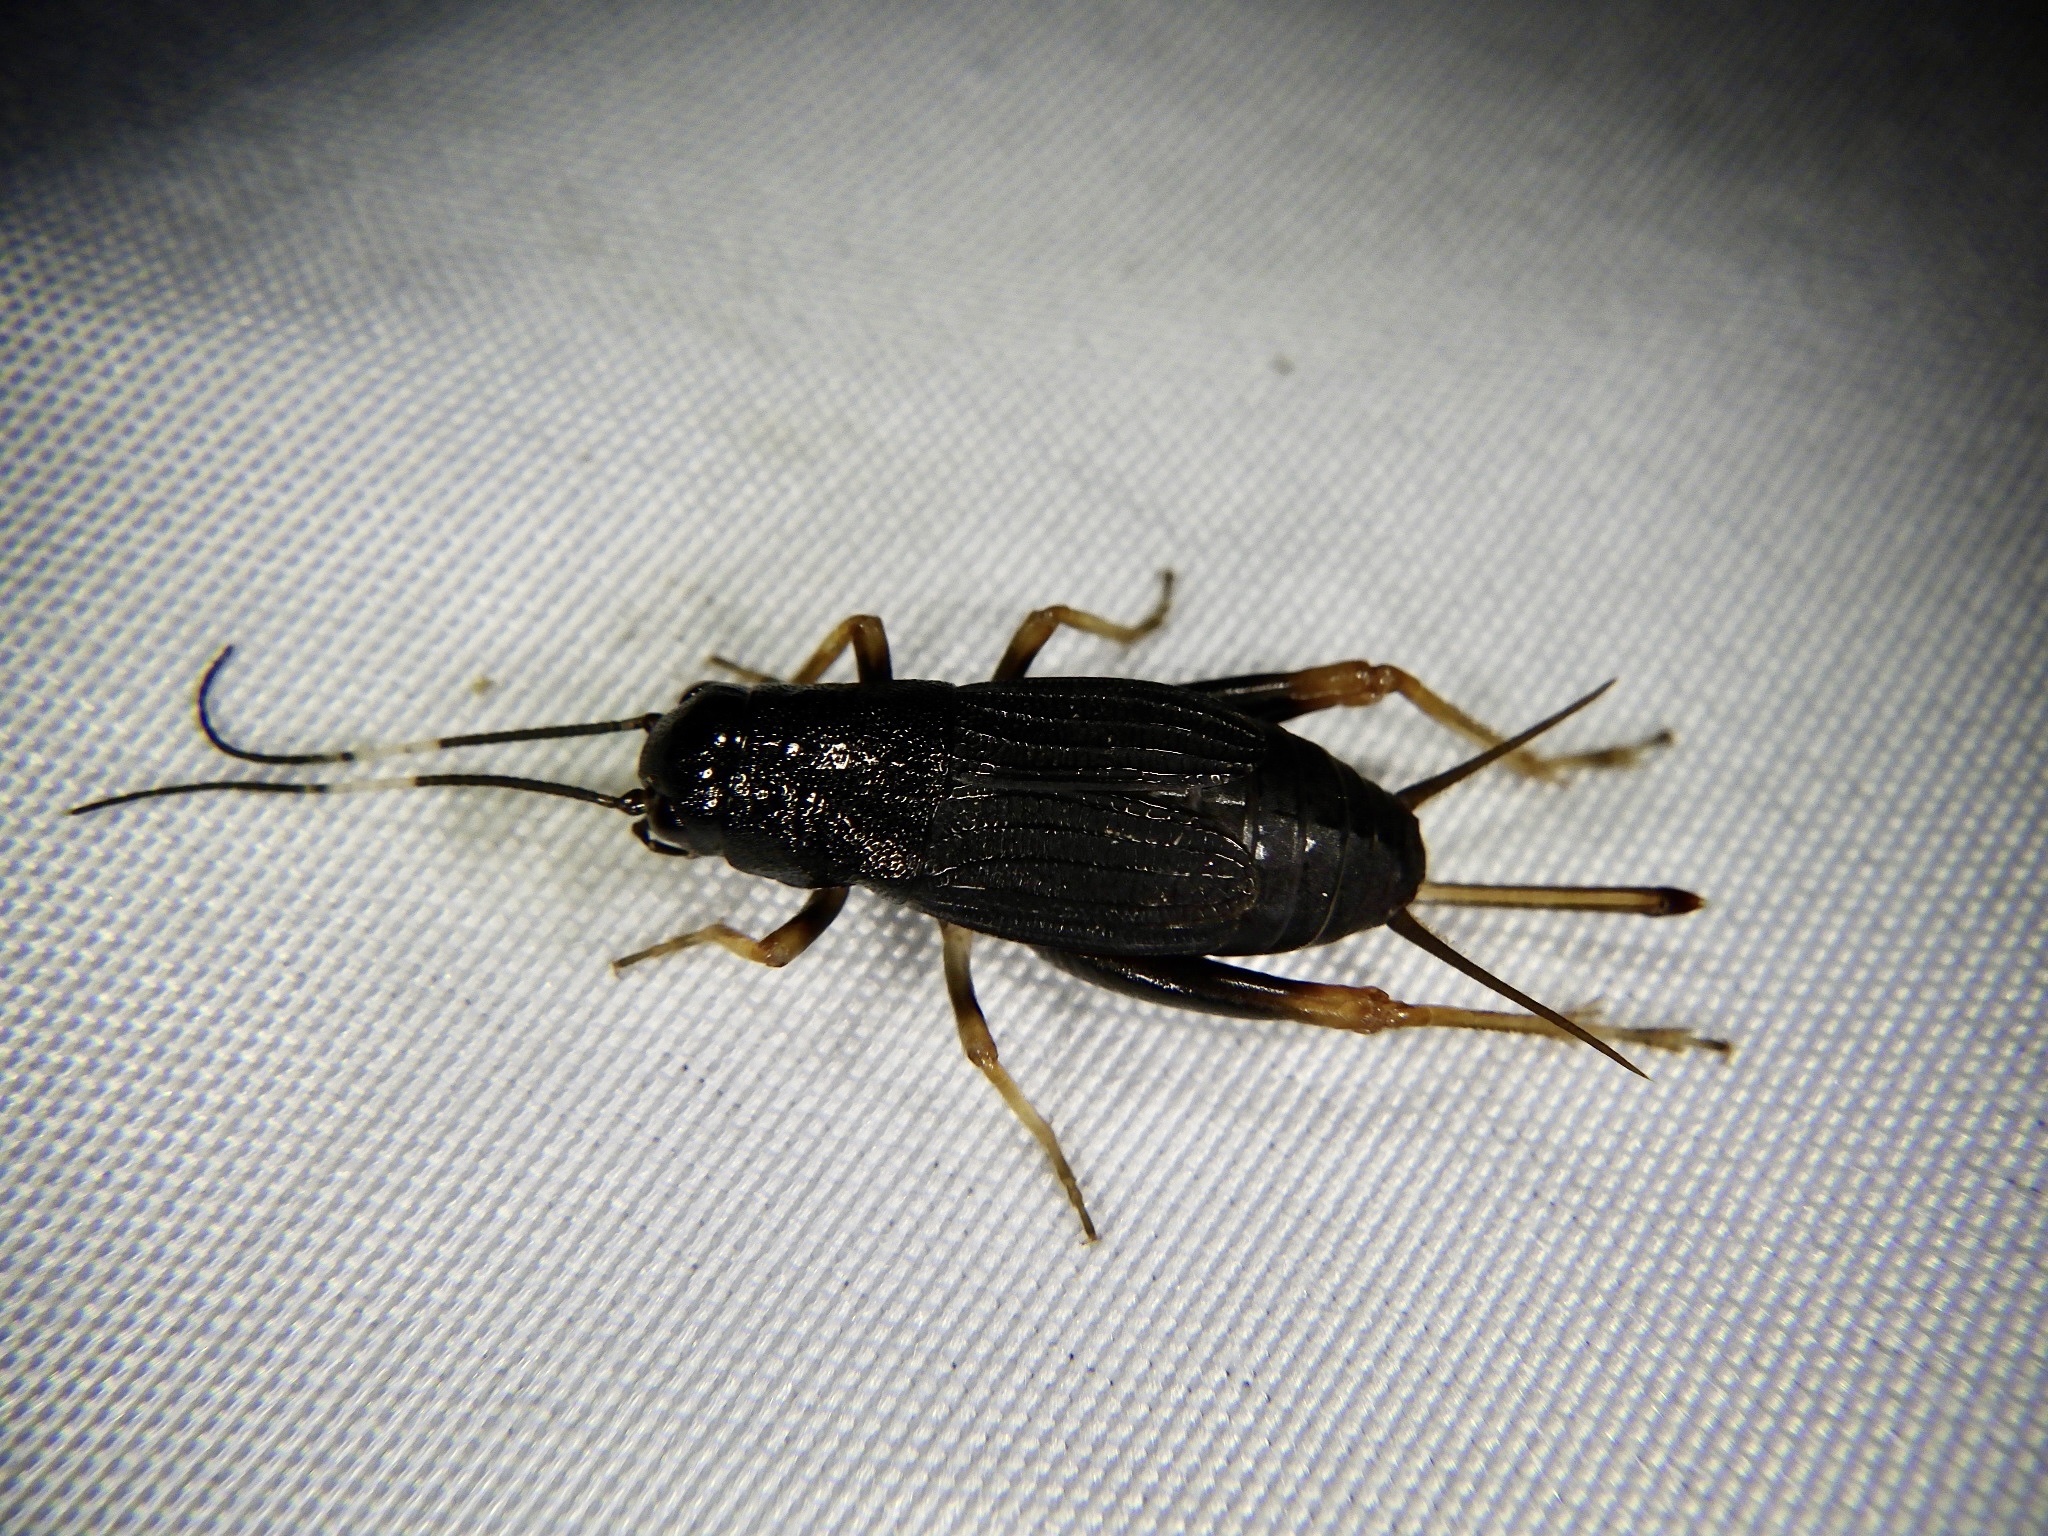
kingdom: Animalia
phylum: Arthropoda
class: Insecta
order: Orthoptera
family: Gryllidae
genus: Sclerogryllus
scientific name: Sclerogryllus punctatus
